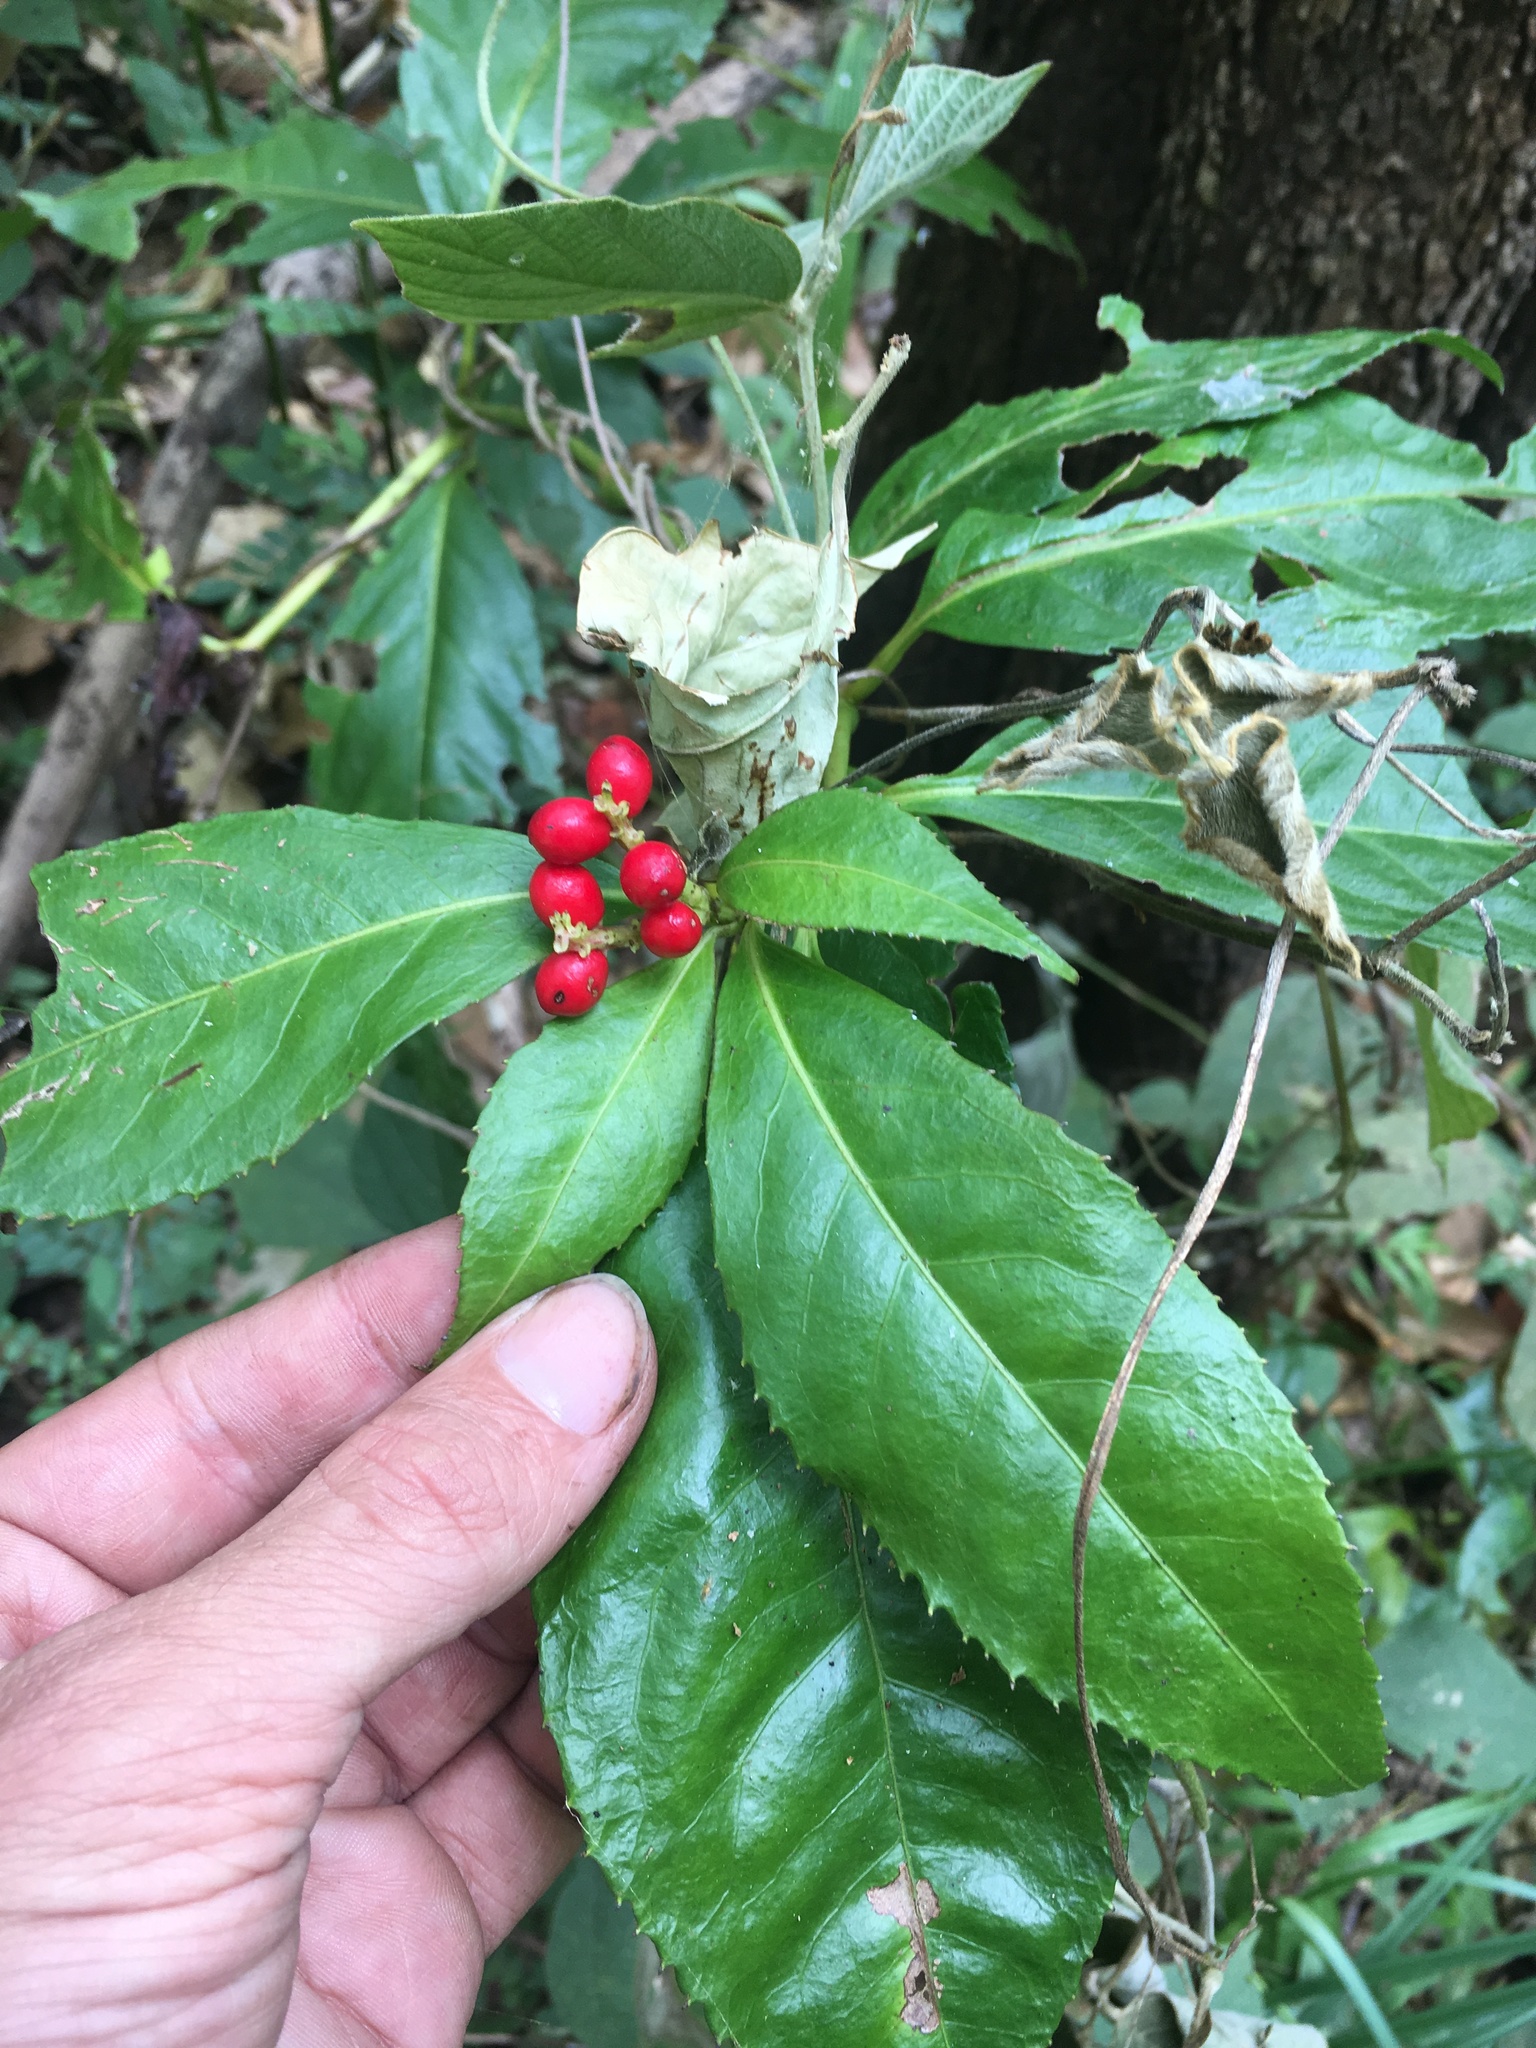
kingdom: Plantae
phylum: Tracheophyta
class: Magnoliopsida
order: Chloranthales
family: Chloranthaceae
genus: Sarcandra
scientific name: Sarcandra glabra
